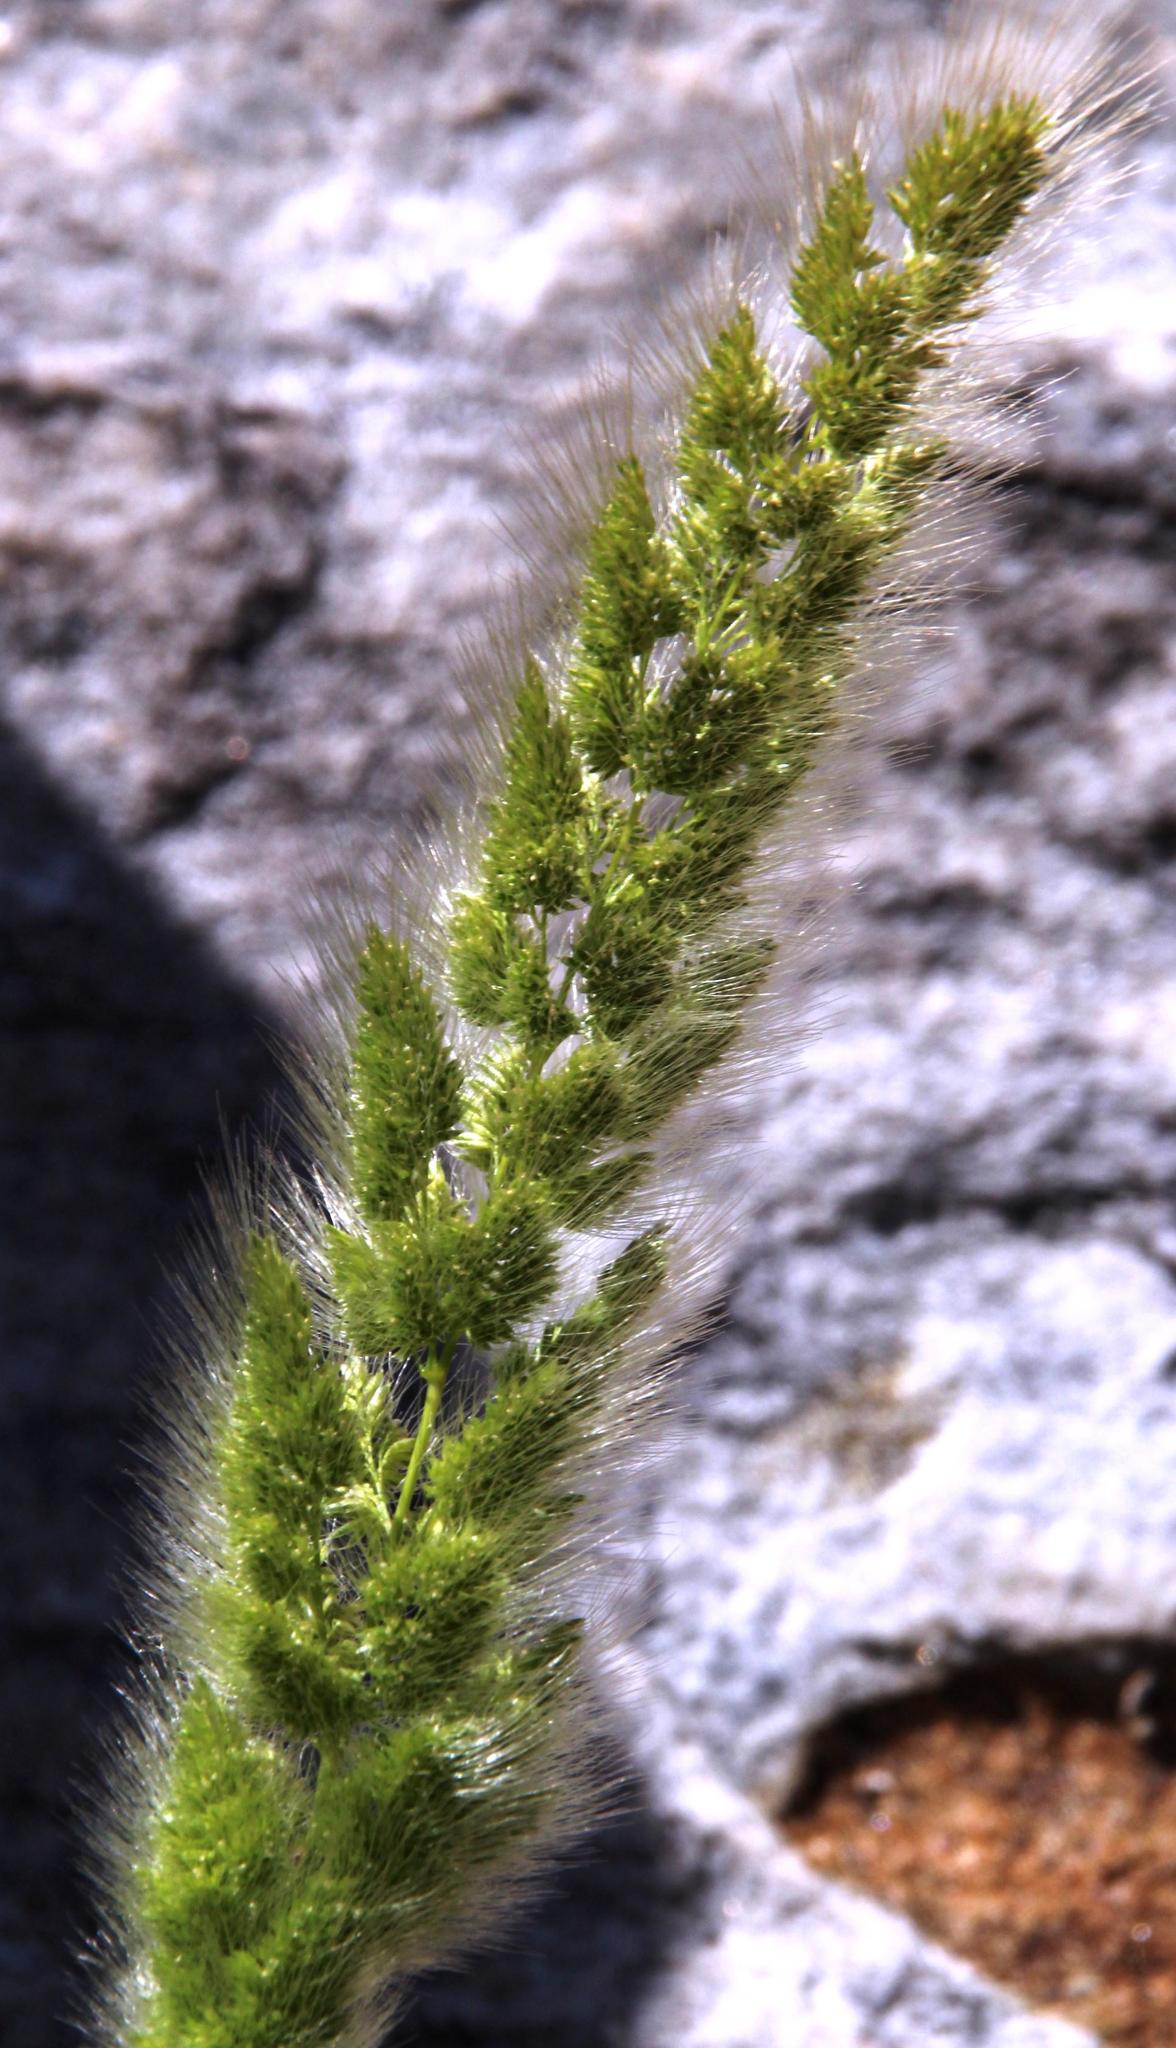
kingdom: Plantae
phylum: Tracheophyta
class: Liliopsida
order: Poales
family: Poaceae
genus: Polypogon
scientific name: Polypogon monspeliensis
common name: Annual rabbitsfoot grass
